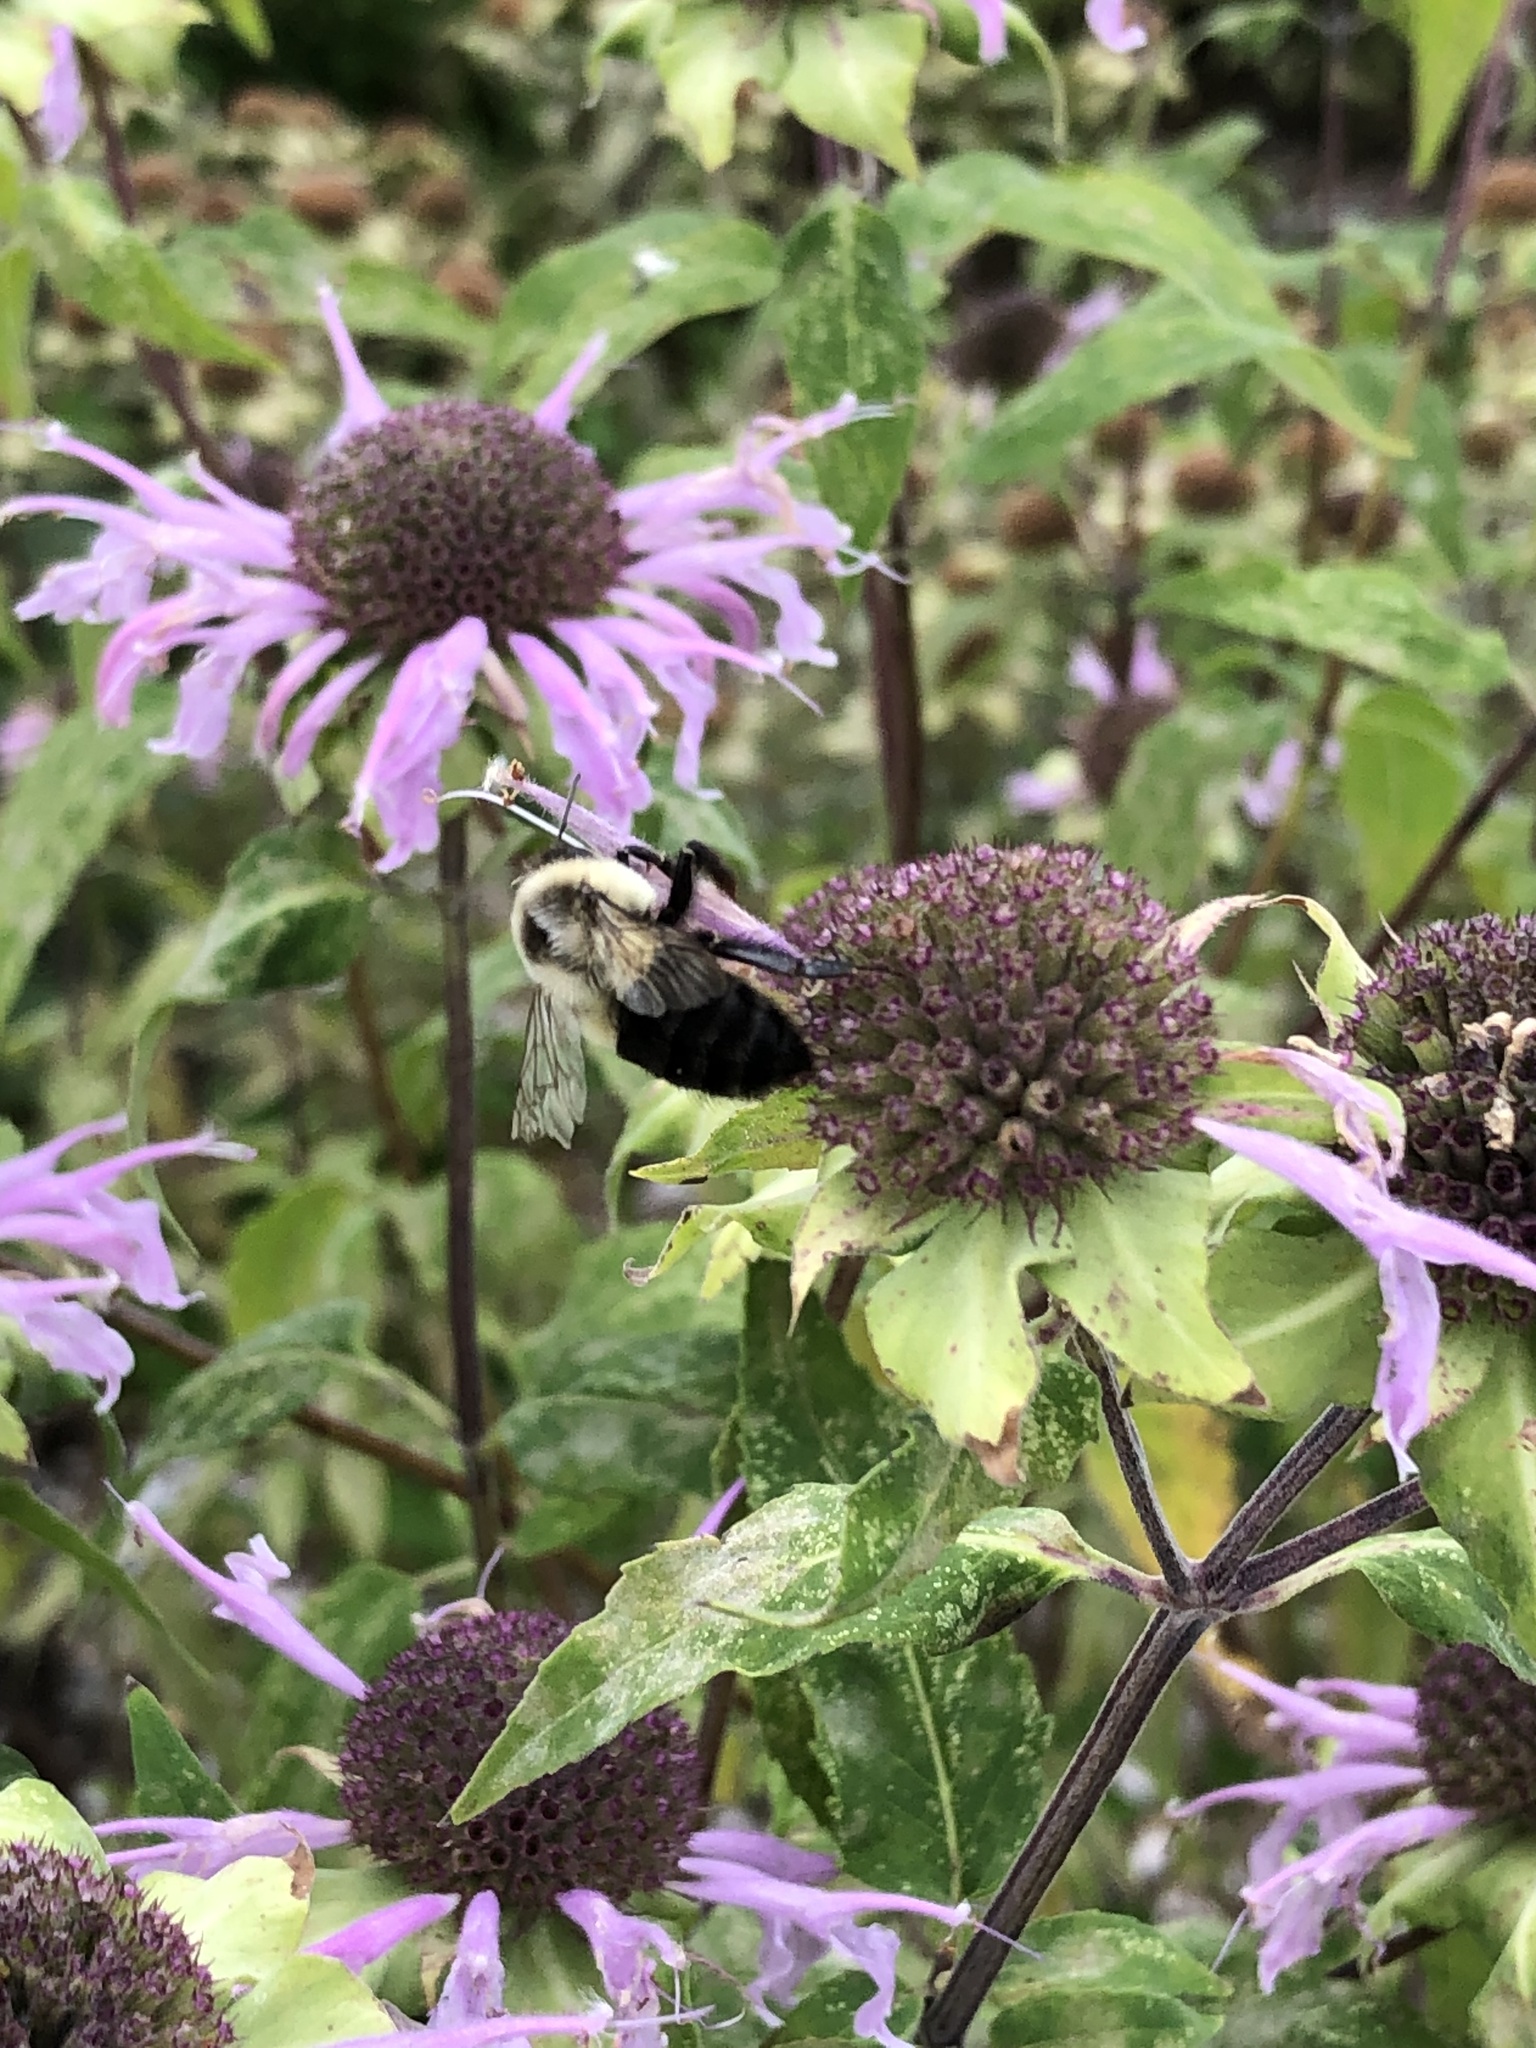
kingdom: Animalia
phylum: Arthropoda
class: Insecta
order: Hymenoptera
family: Apidae
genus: Bombus
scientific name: Bombus impatiens
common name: Common eastern bumble bee
